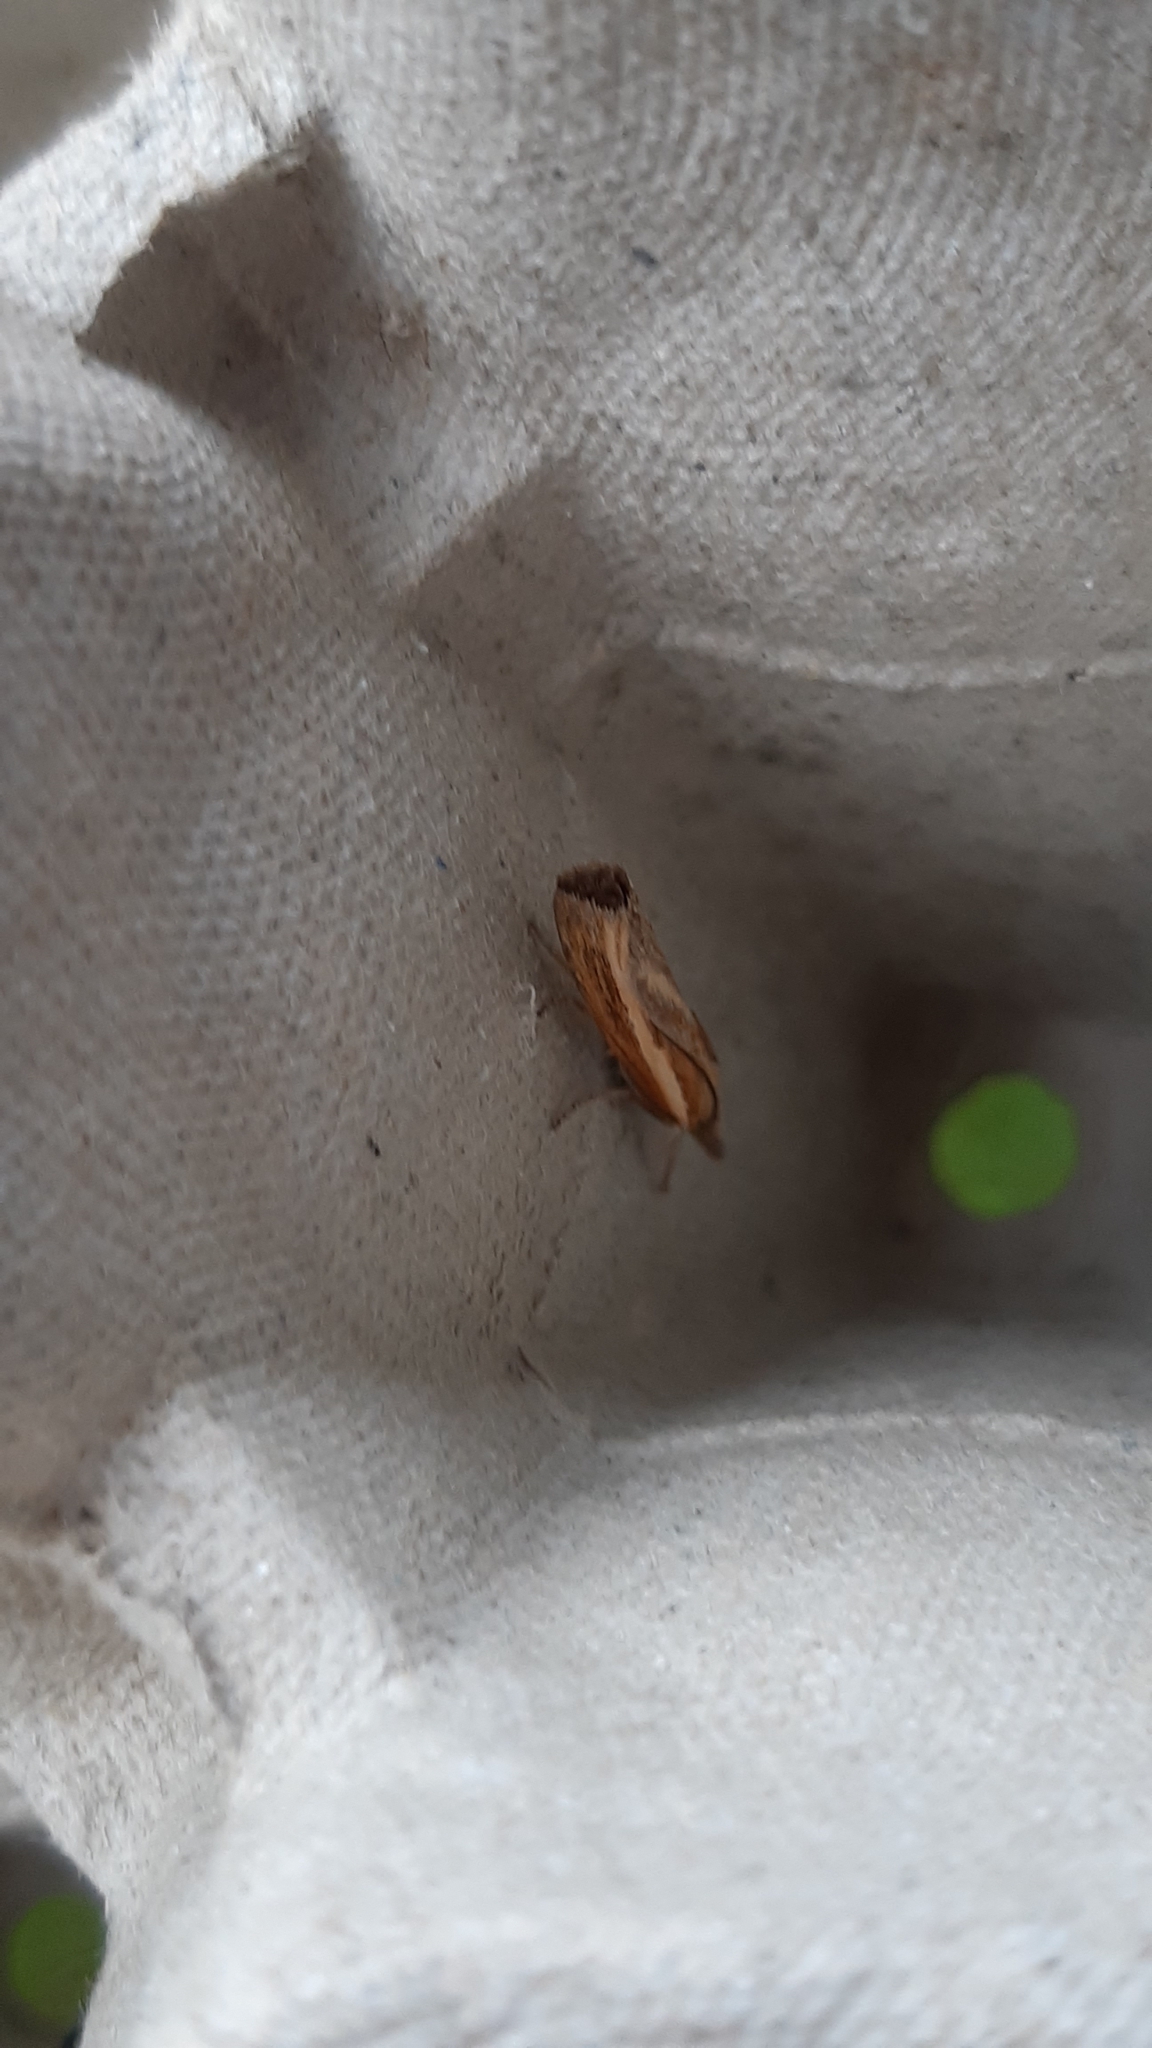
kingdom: Animalia
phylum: Arthropoda
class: Insecta
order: Lepidoptera
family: Crambidae
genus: Agriphila
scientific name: Agriphila tristellus
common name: Common grass-veneer
